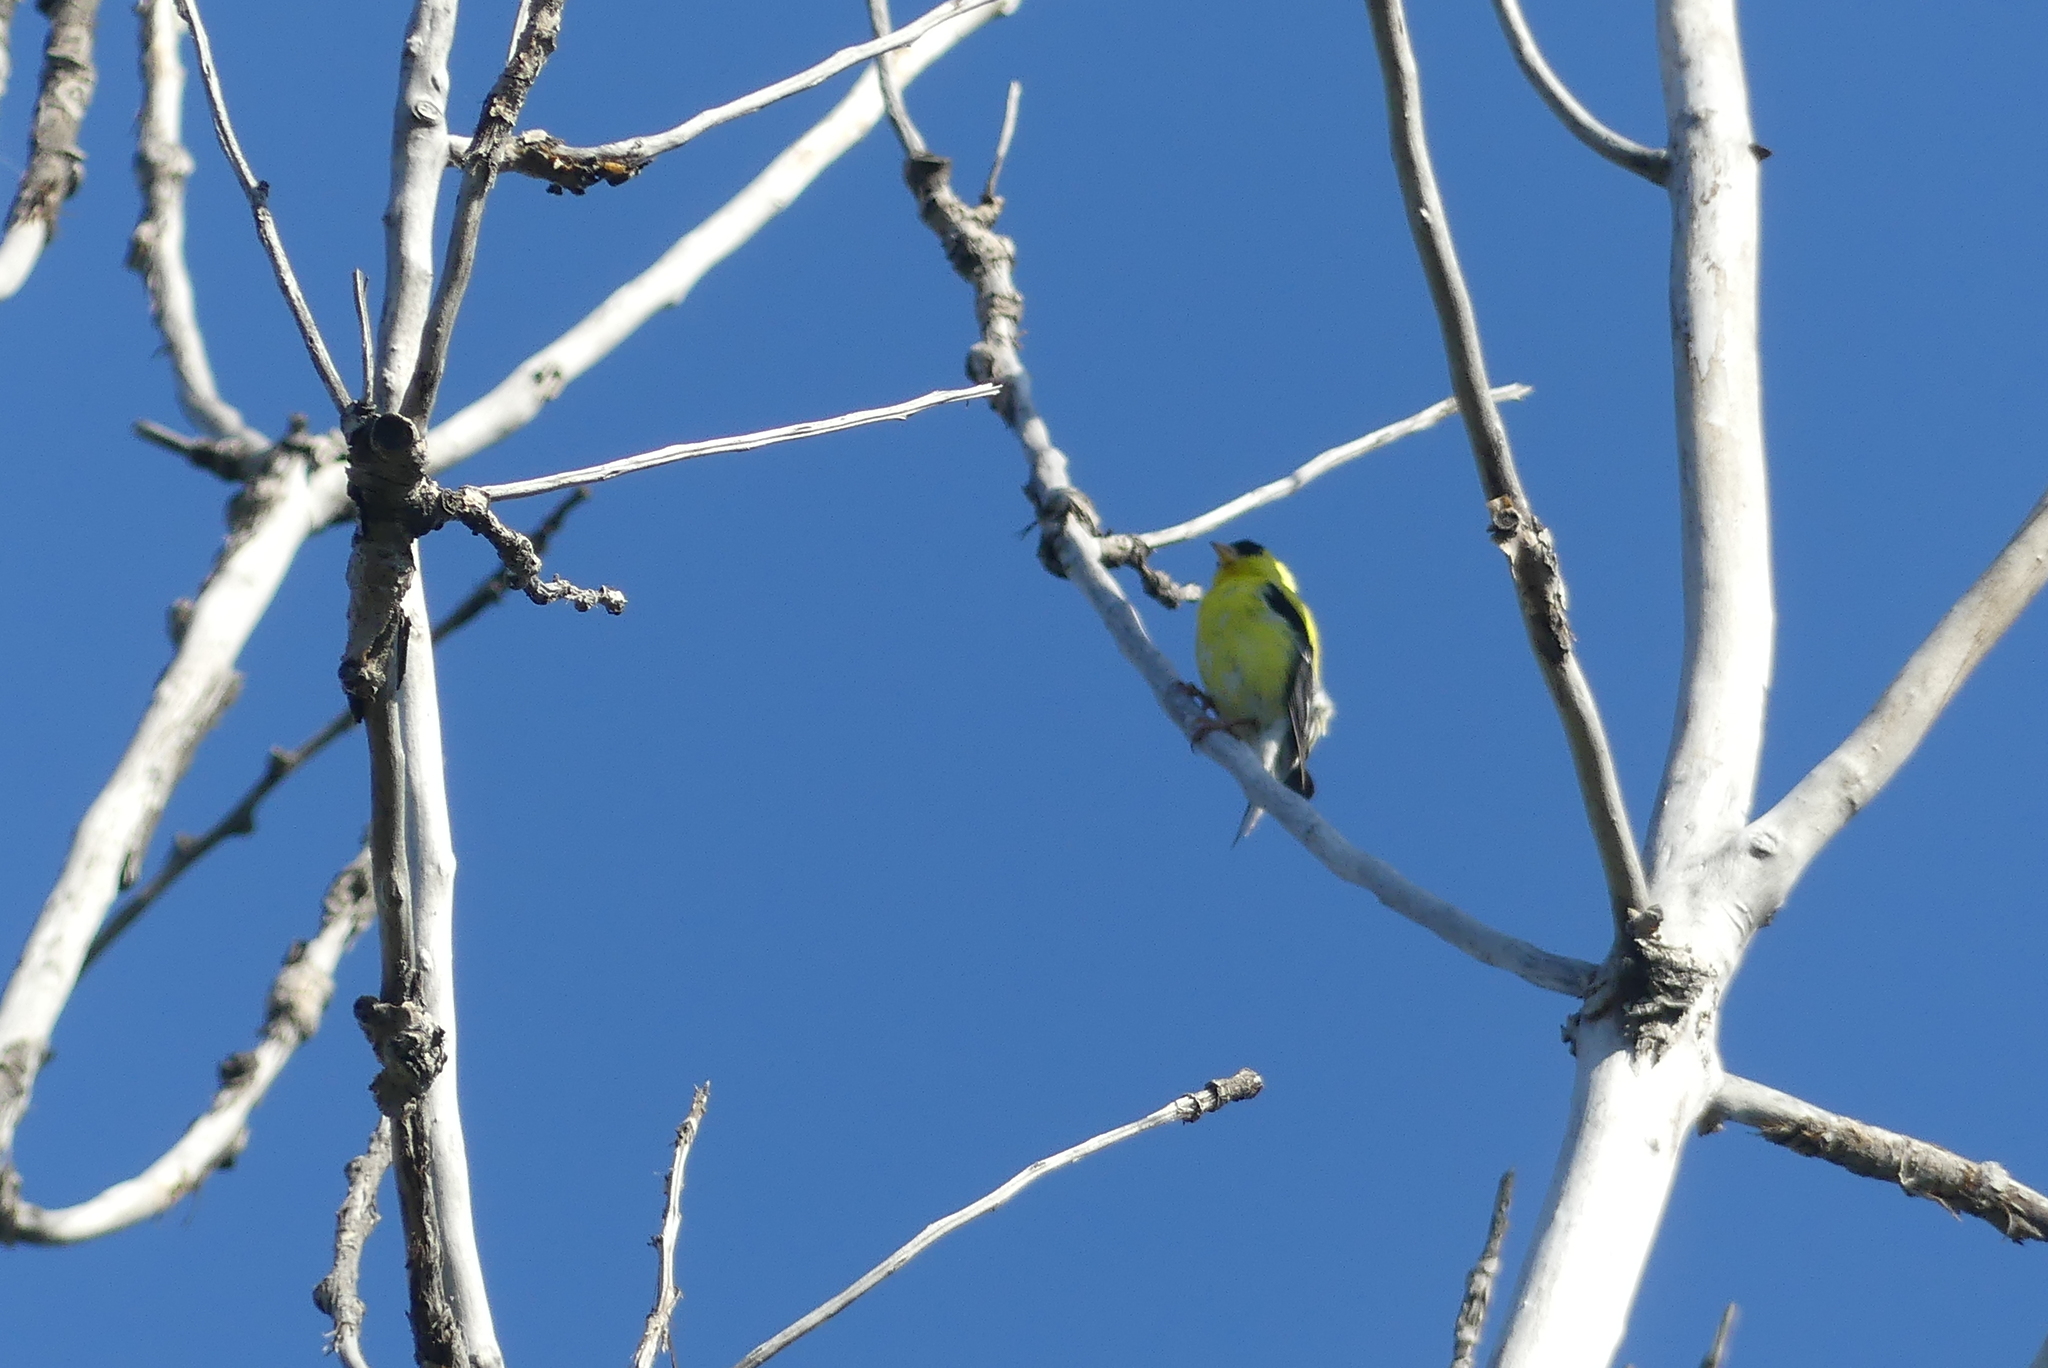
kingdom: Animalia
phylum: Chordata
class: Aves
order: Passeriformes
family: Fringillidae
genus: Spinus
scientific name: Spinus tristis
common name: American goldfinch
